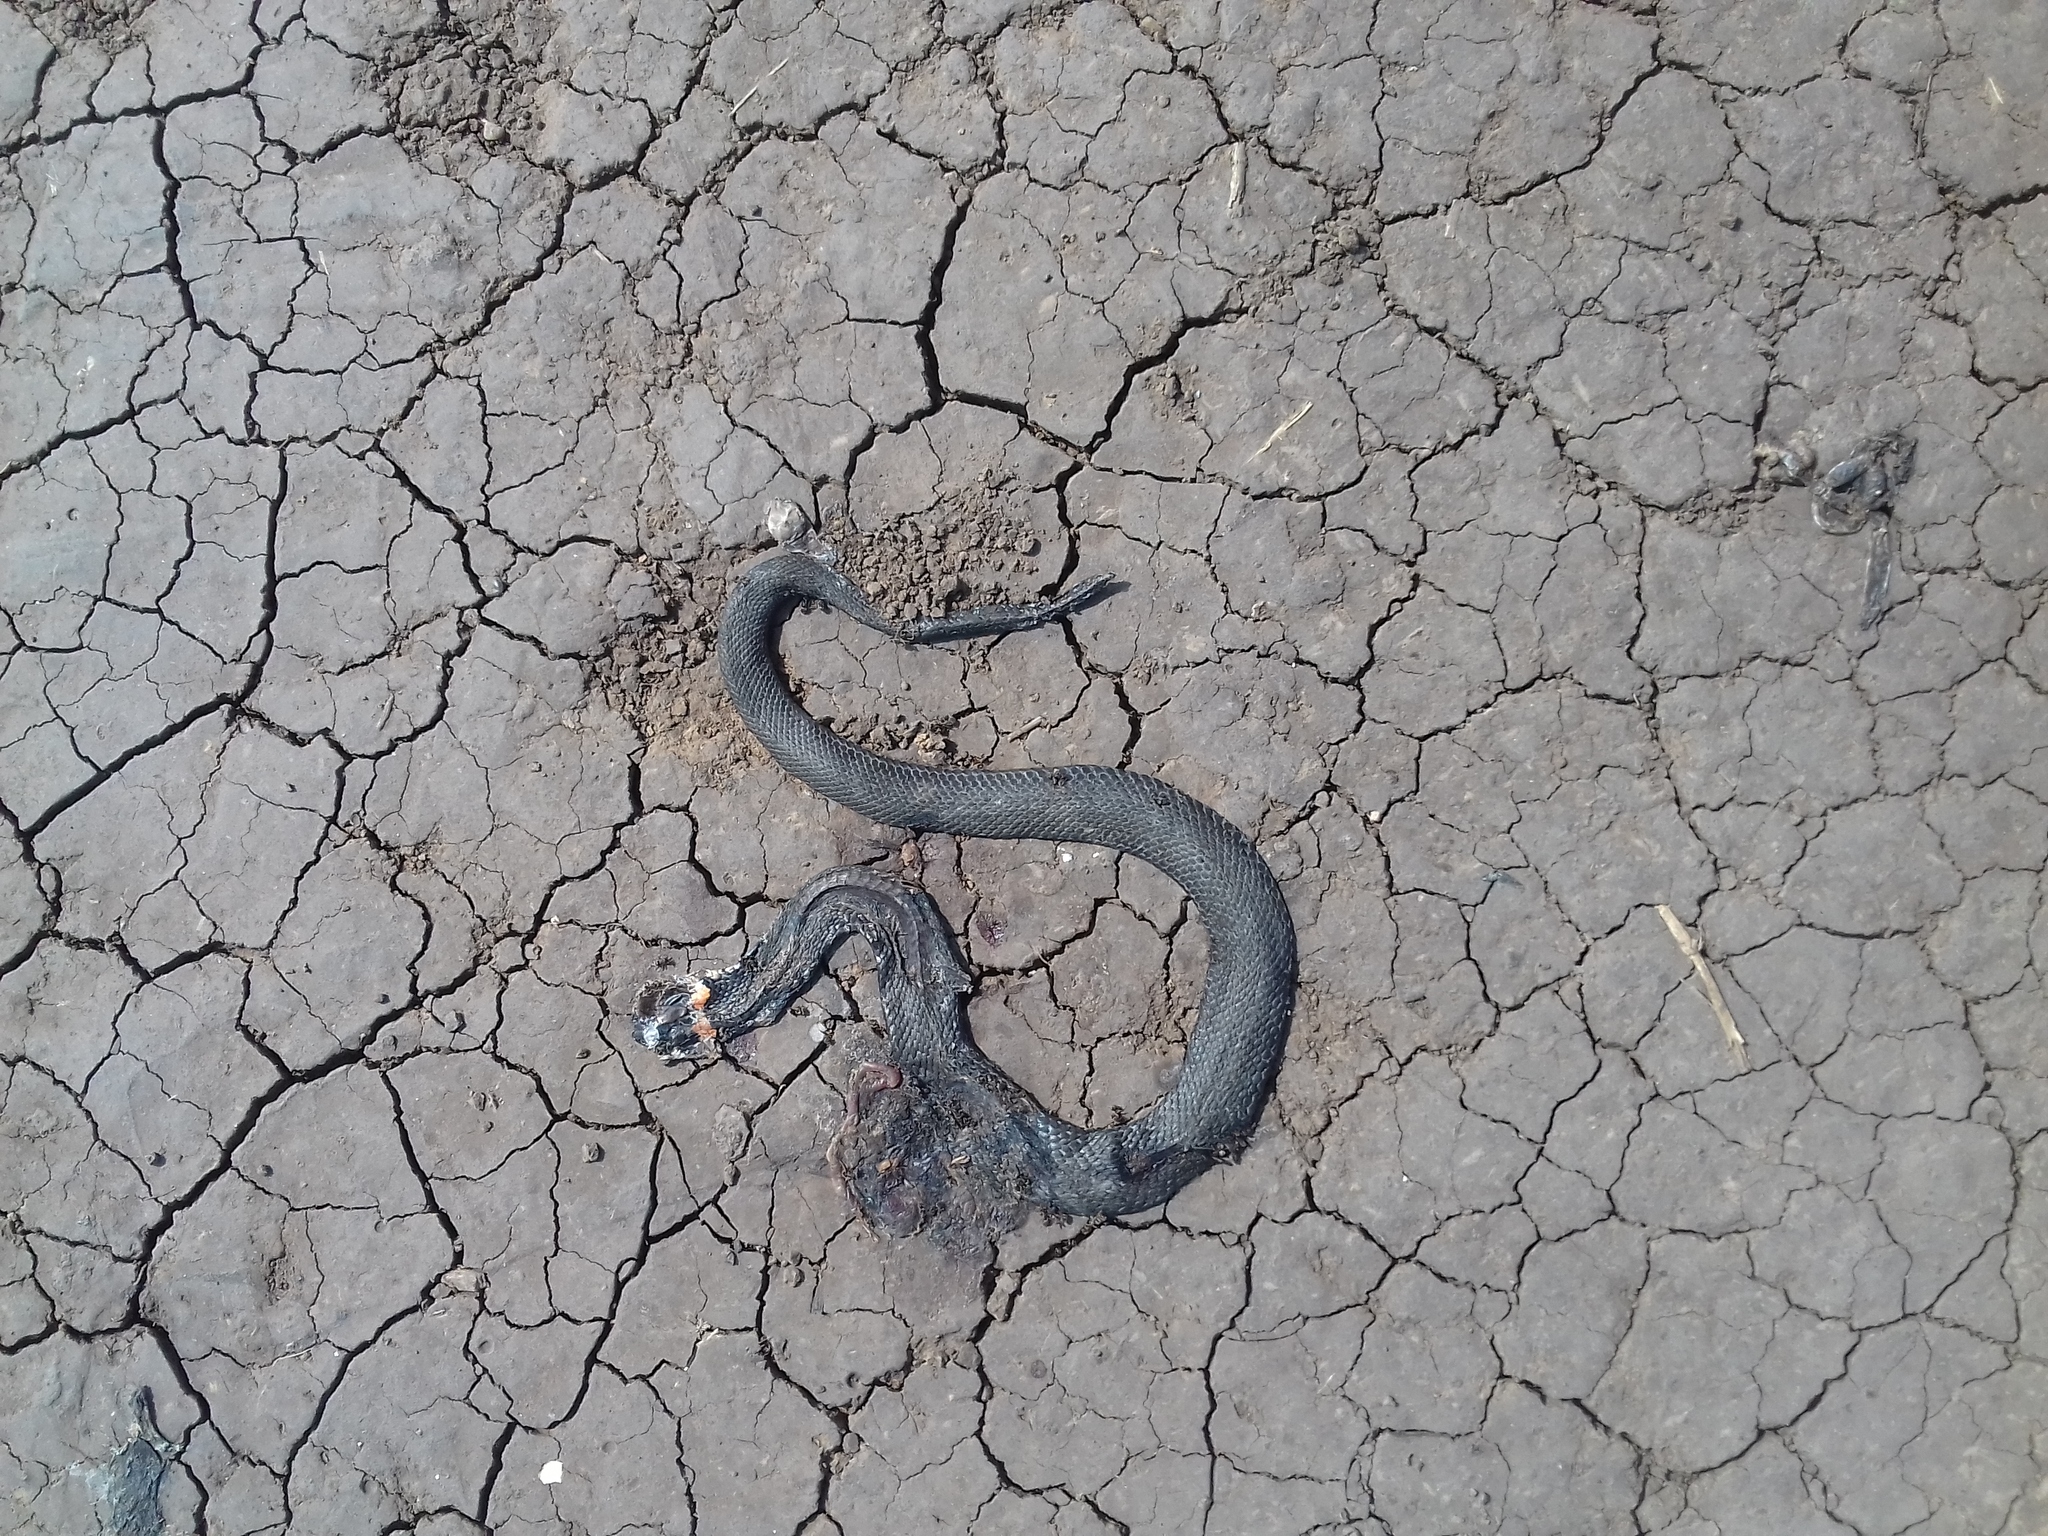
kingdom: Animalia
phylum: Chordata
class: Squamata
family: Colubridae
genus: Natrix
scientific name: Natrix natrix
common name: Grass snake
